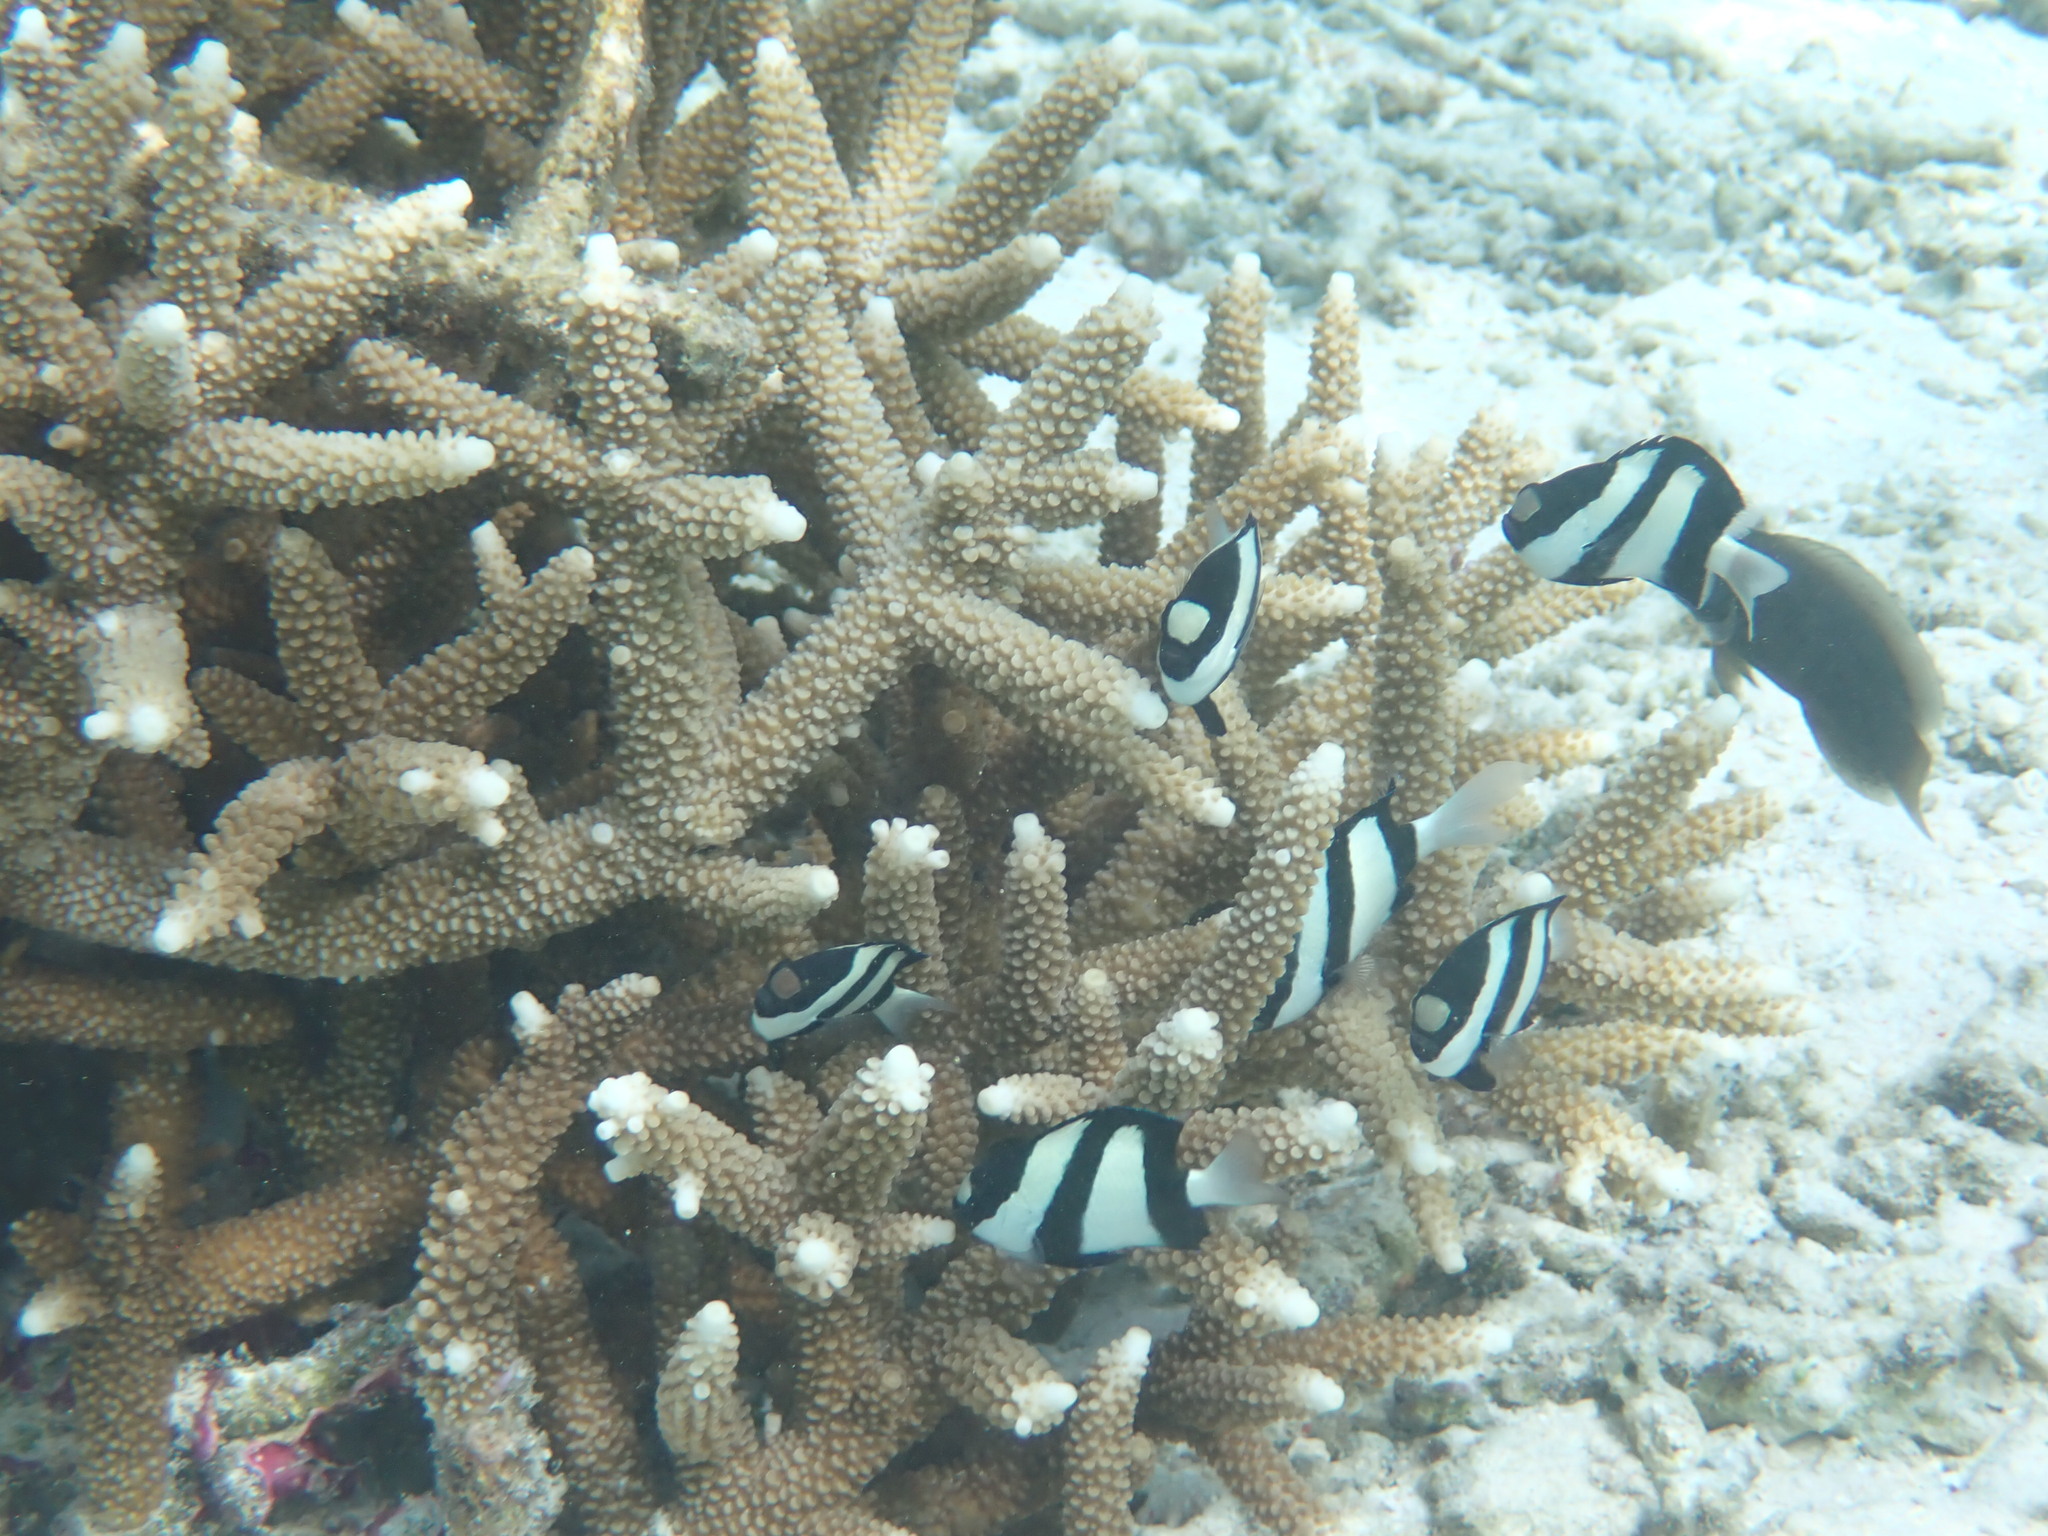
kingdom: Animalia
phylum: Chordata
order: Perciformes
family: Pomacentridae
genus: Dascyllus
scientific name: Dascyllus aruanus
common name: Humbug dascyllus
